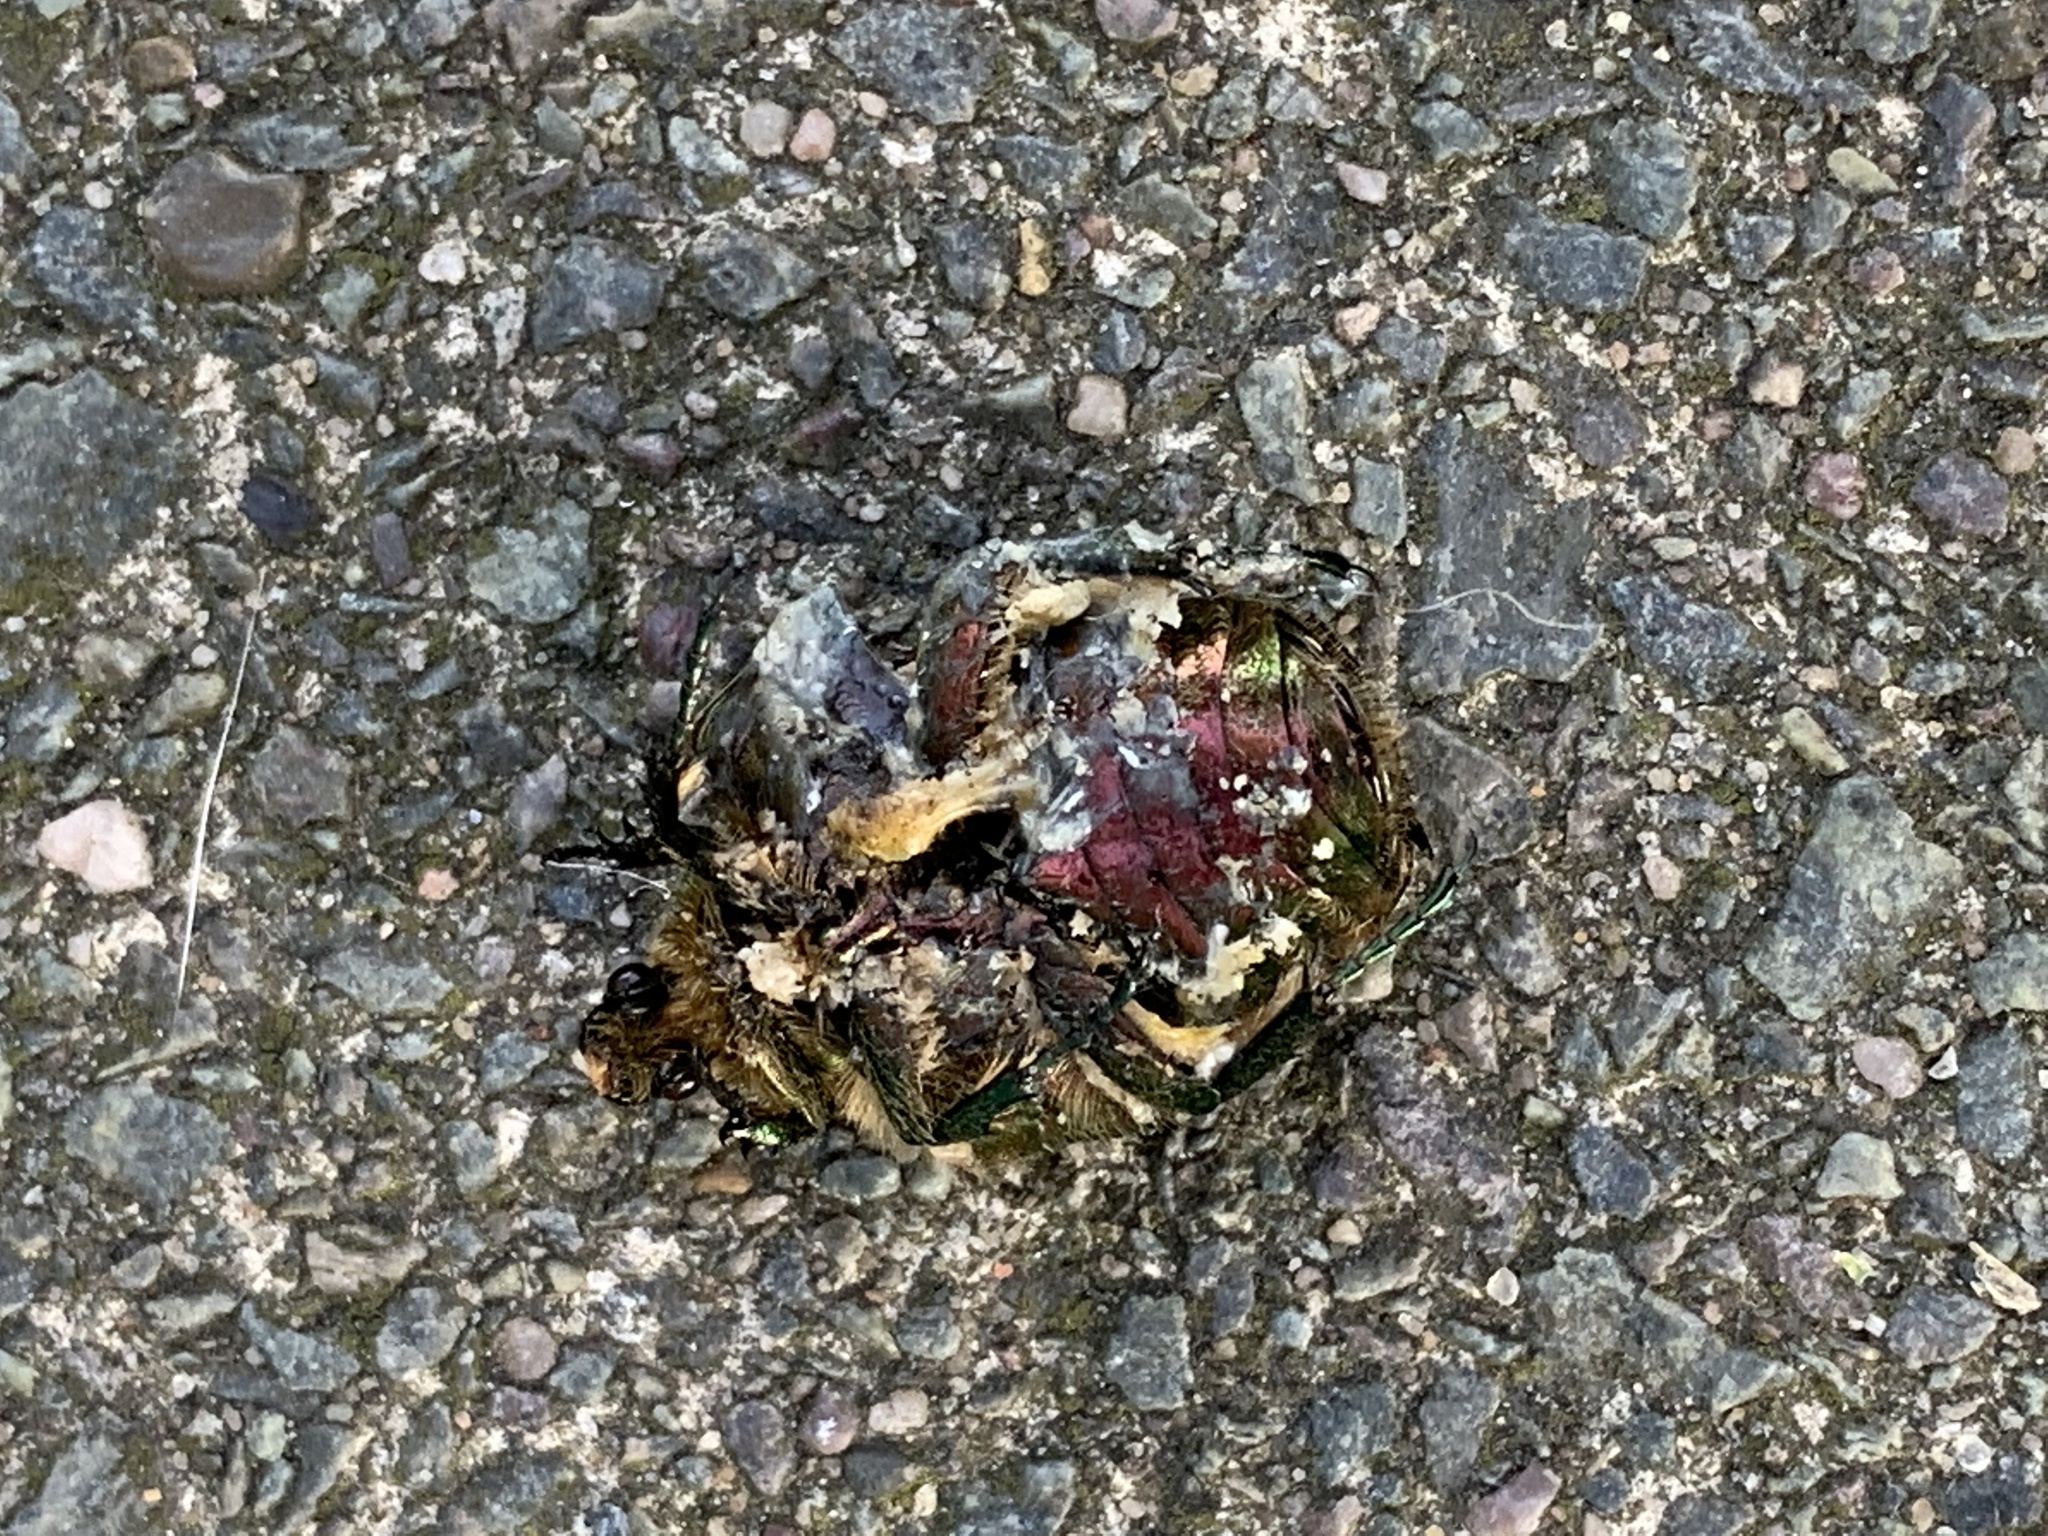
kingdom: Animalia
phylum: Arthropoda
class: Insecta
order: Coleoptera
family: Scarabaeidae
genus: Cetonia
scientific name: Cetonia aurata
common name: Rose chafer
